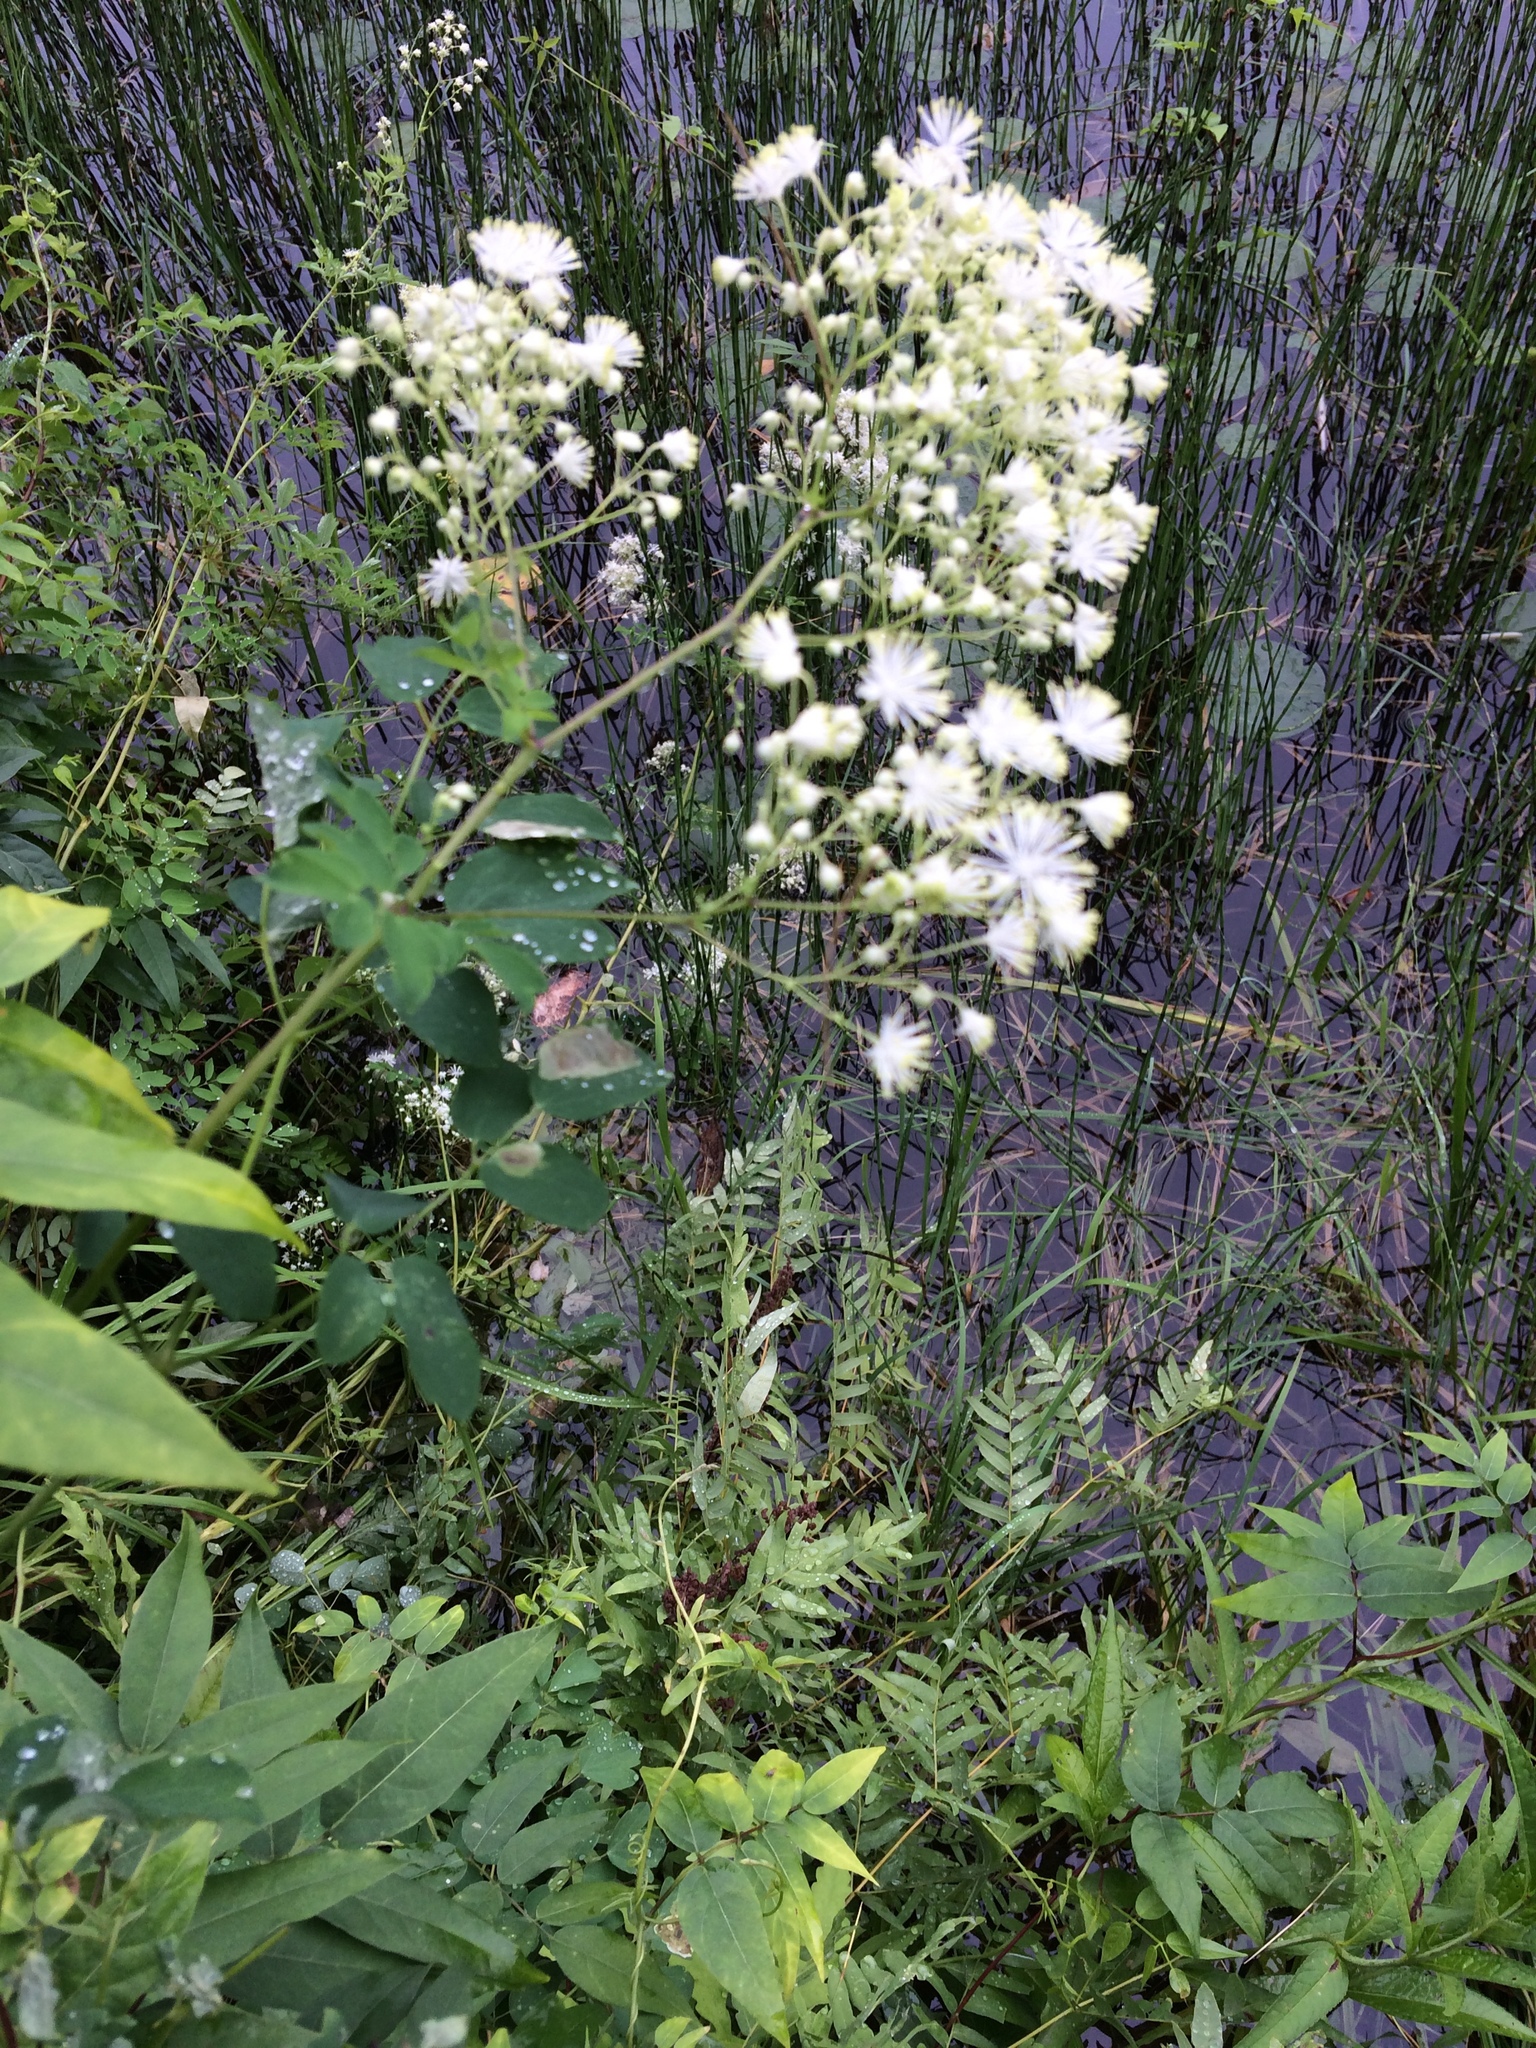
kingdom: Plantae
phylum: Tracheophyta
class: Magnoliopsida
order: Ranunculales
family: Ranunculaceae
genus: Thalictrum
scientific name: Thalictrum pubescens
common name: King-of-the-meadow
